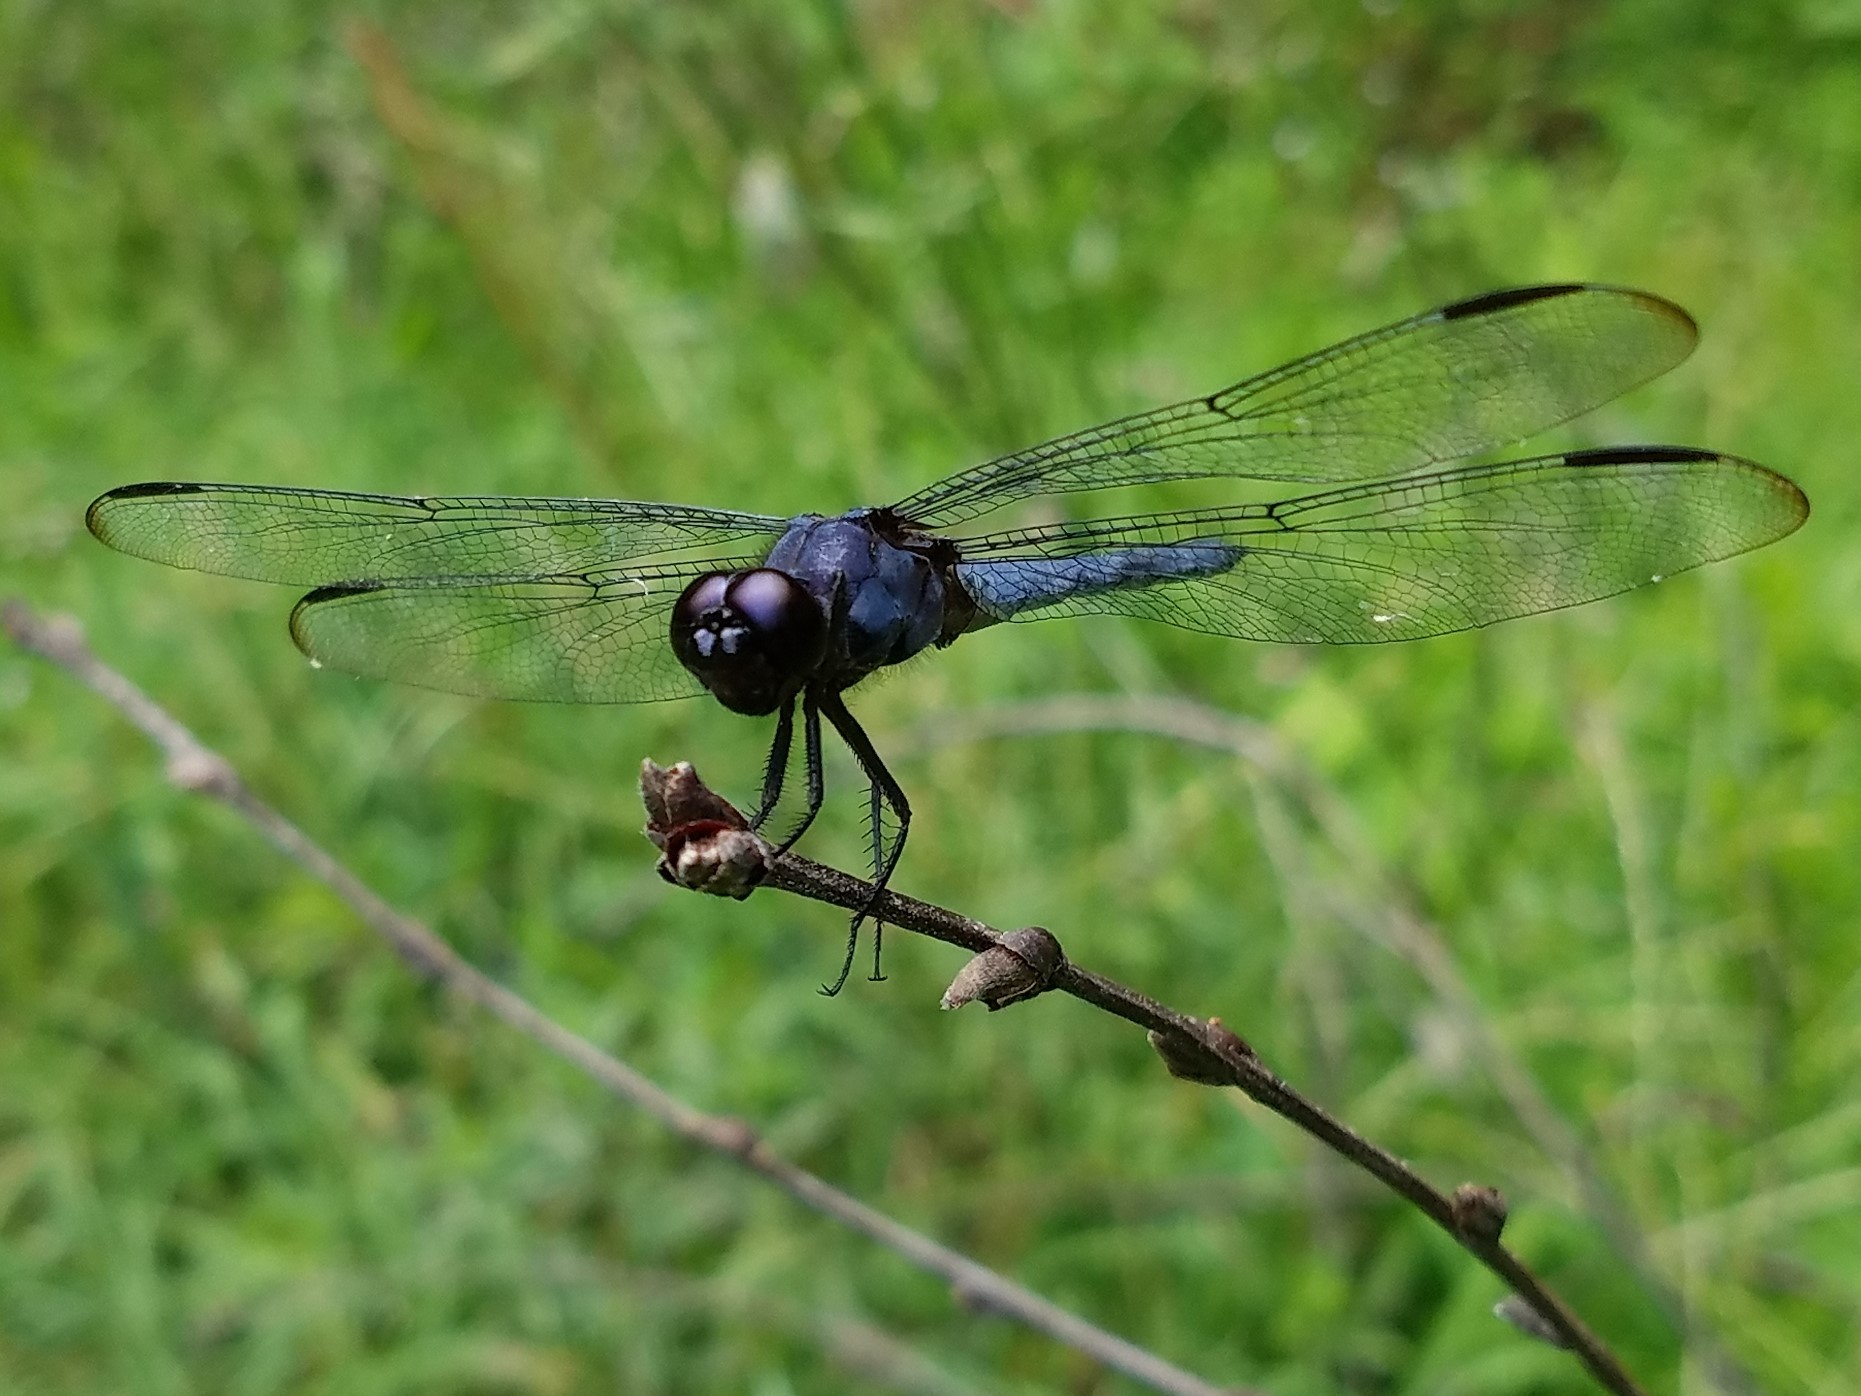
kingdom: Animalia
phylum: Arthropoda
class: Insecta
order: Odonata
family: Libellulidae
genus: Libellula
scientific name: Libellula incesta
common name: Slaty skimmer
